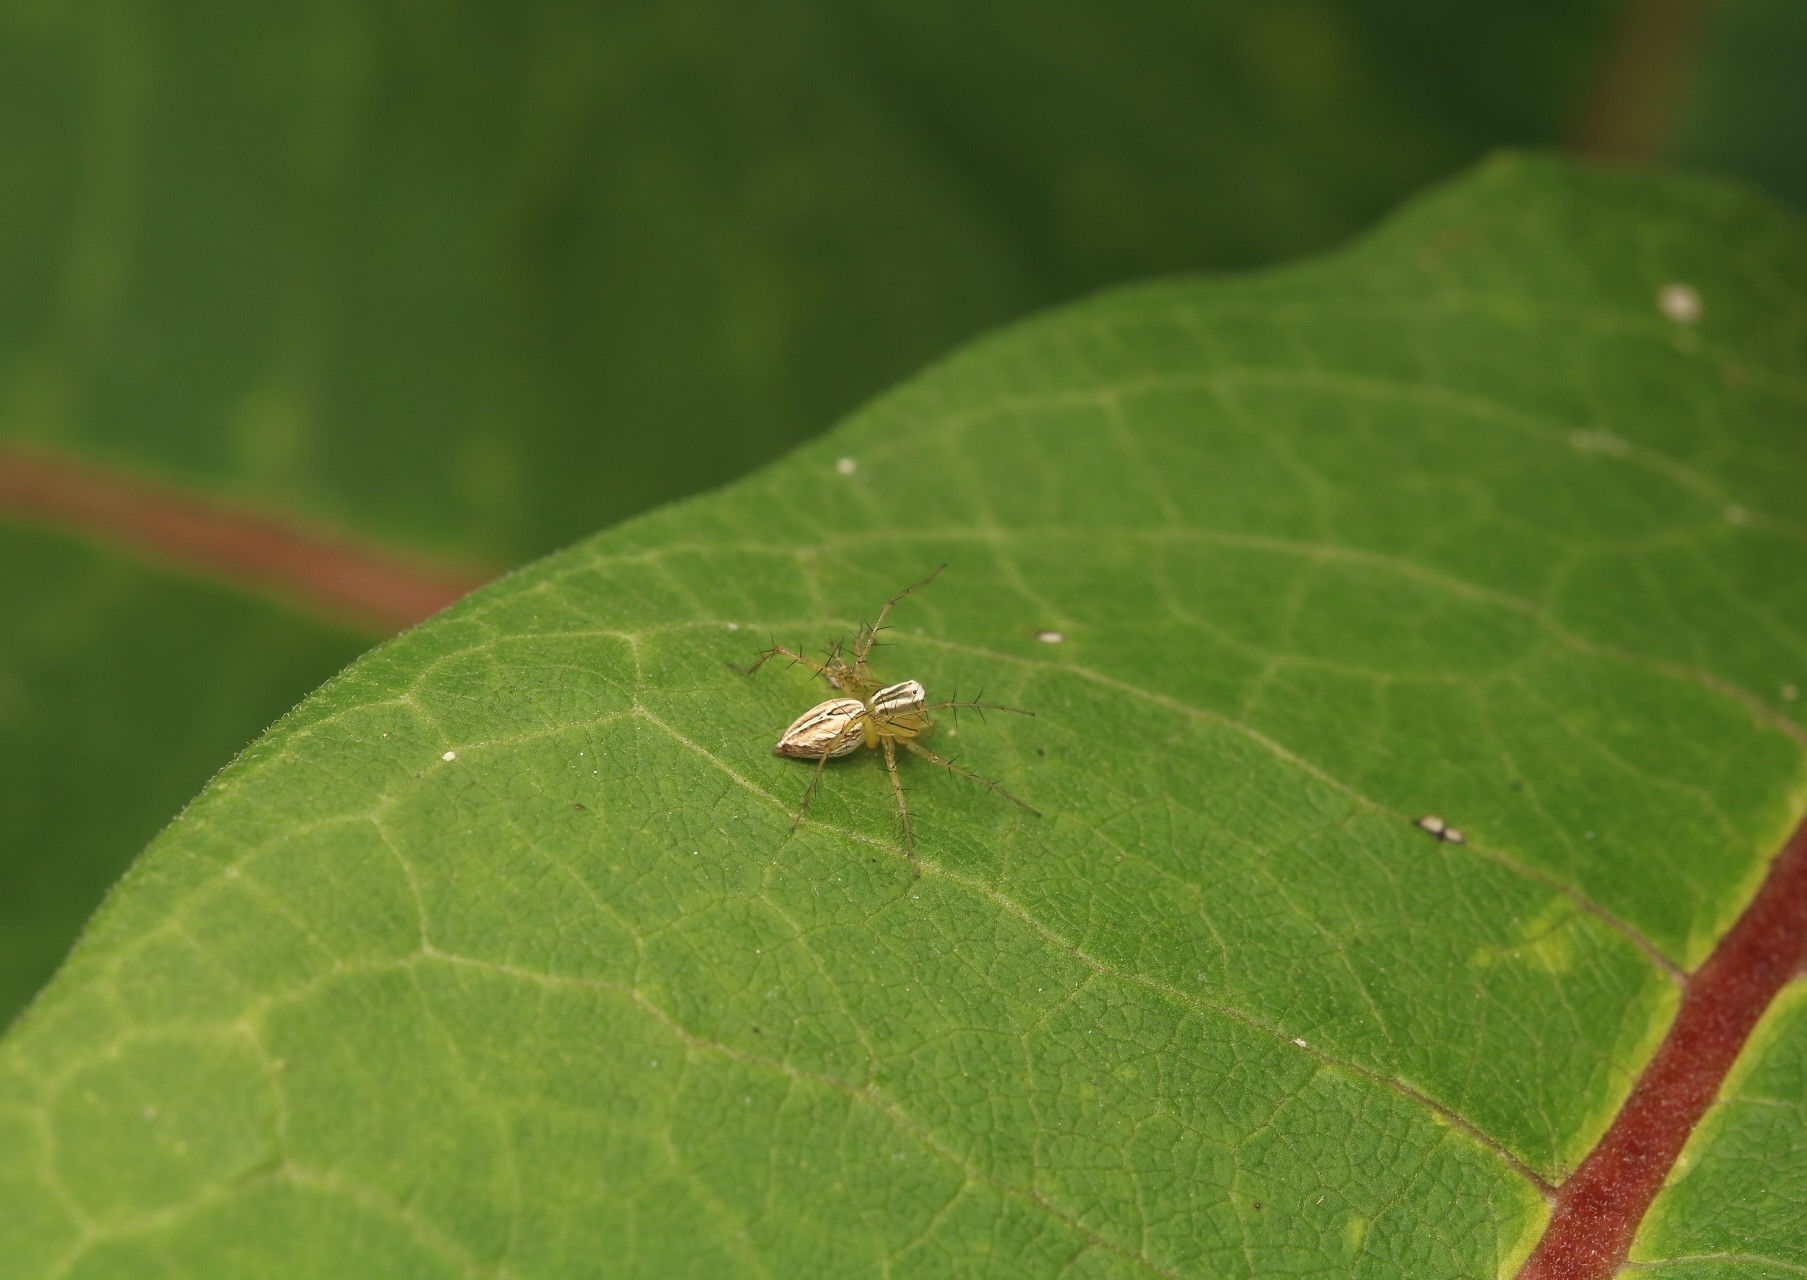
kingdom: Animalia
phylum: Arthropoda
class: Arachnida
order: Araneae
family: Oxyopidae
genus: Oxyopes
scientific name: Oxyopes salticus
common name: Lynx spiders
